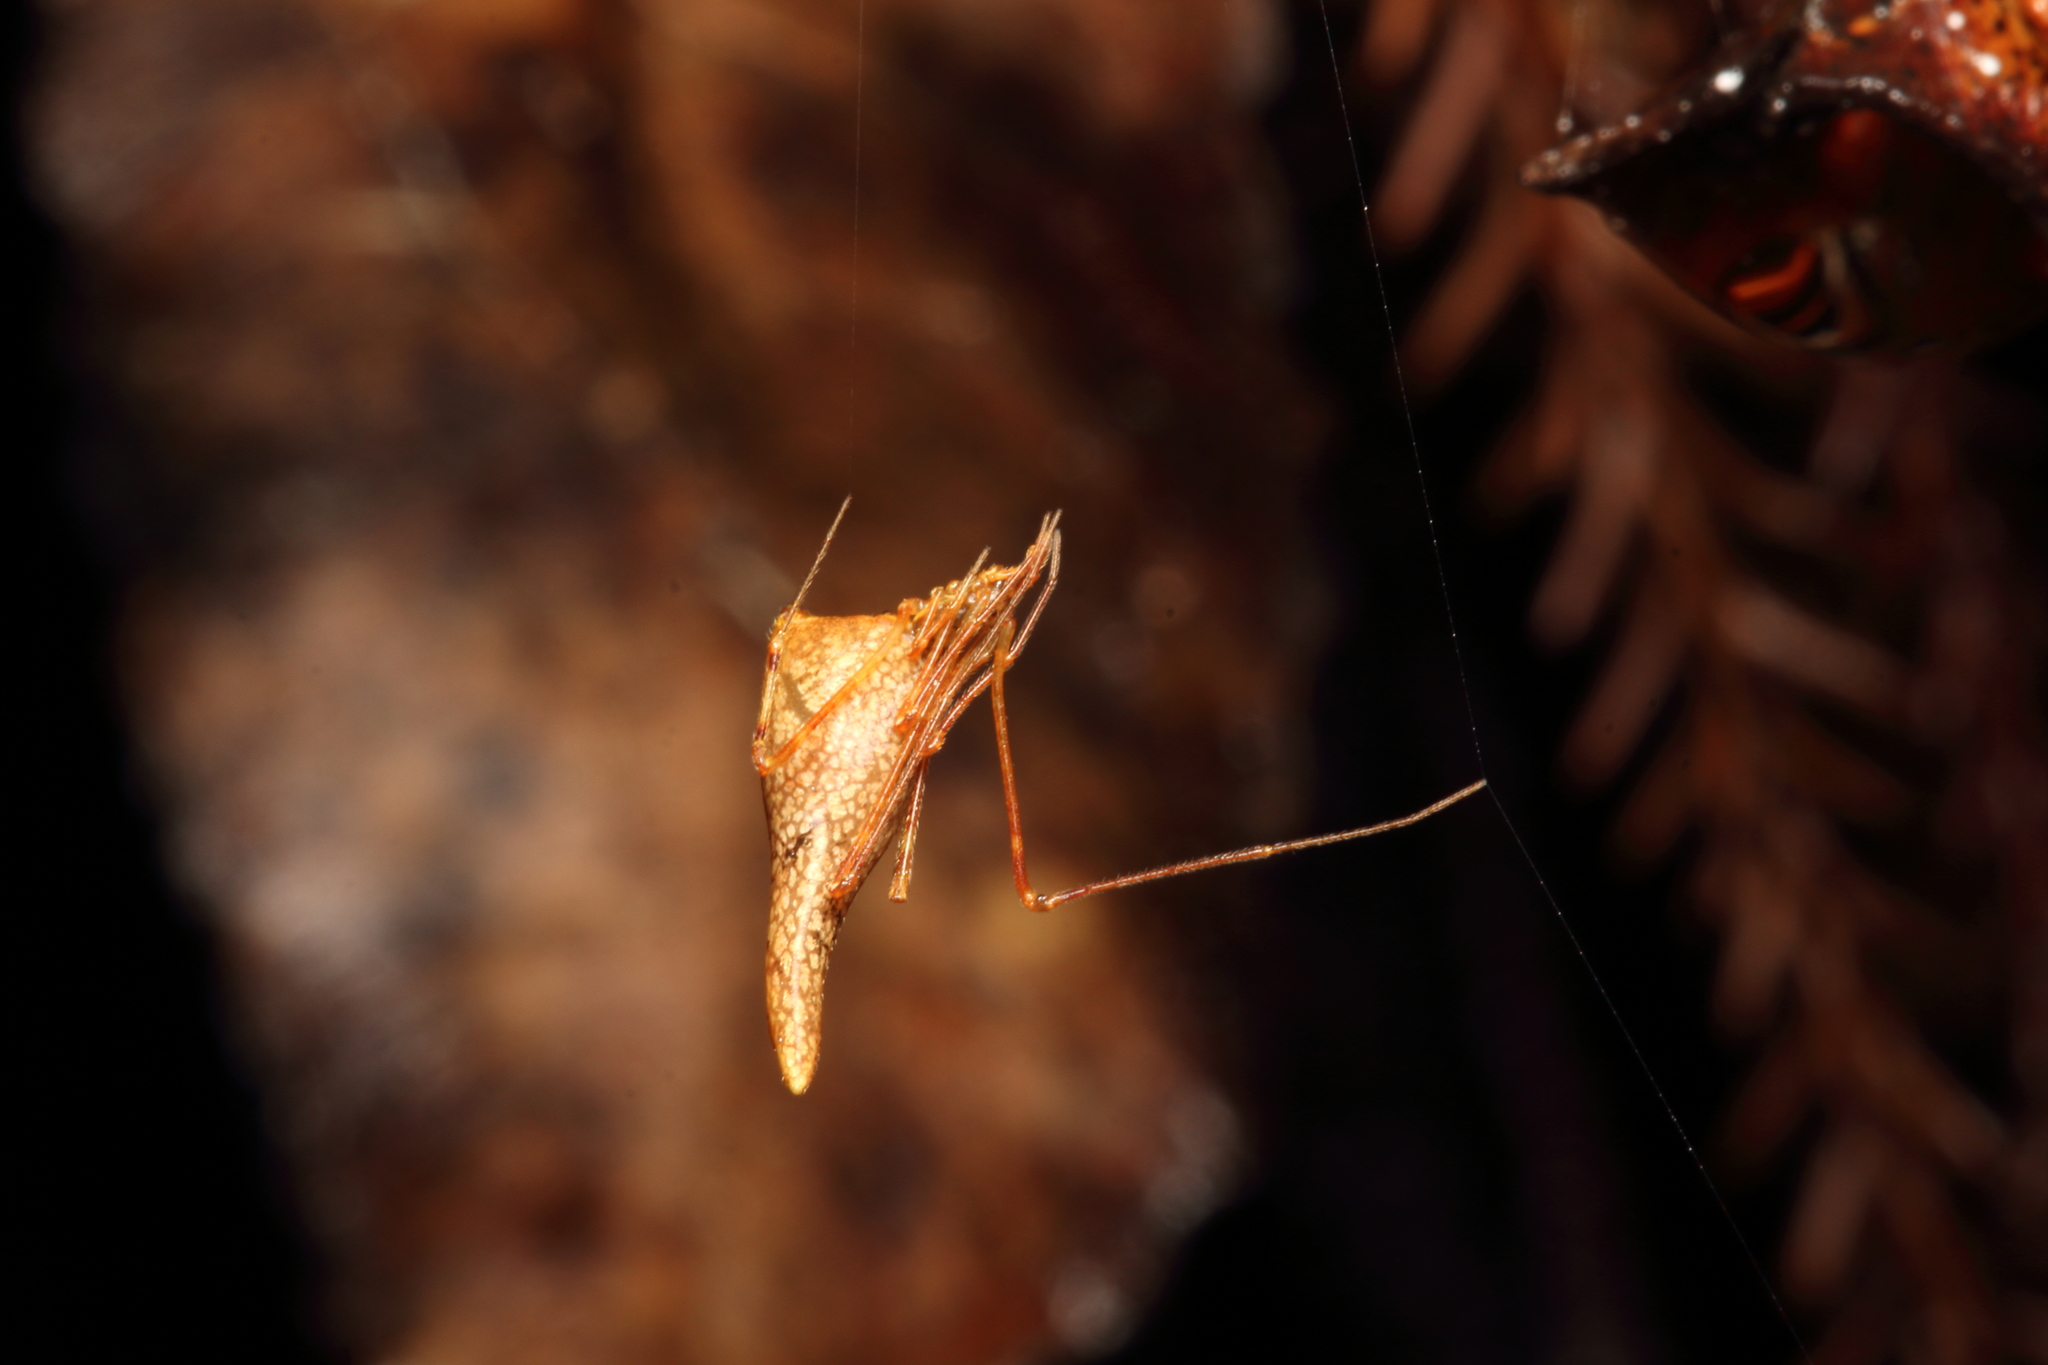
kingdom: Animalia
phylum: Arthropoda
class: Arachnida
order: Araneae
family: Theridiidae
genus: Rhomphaea
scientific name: Rhomphaea urquharti
